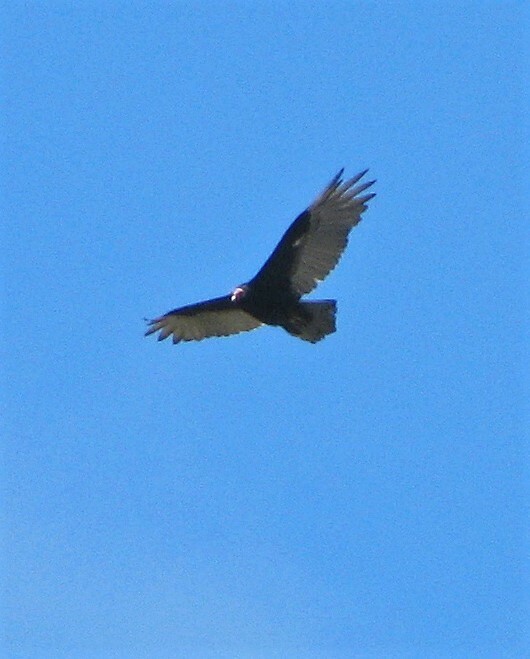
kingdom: Animalia
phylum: Chordata
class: Aves
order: Accipitriformes
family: Cathartidae
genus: Cathartes
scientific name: Cathartes aura
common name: Turkey vulture
